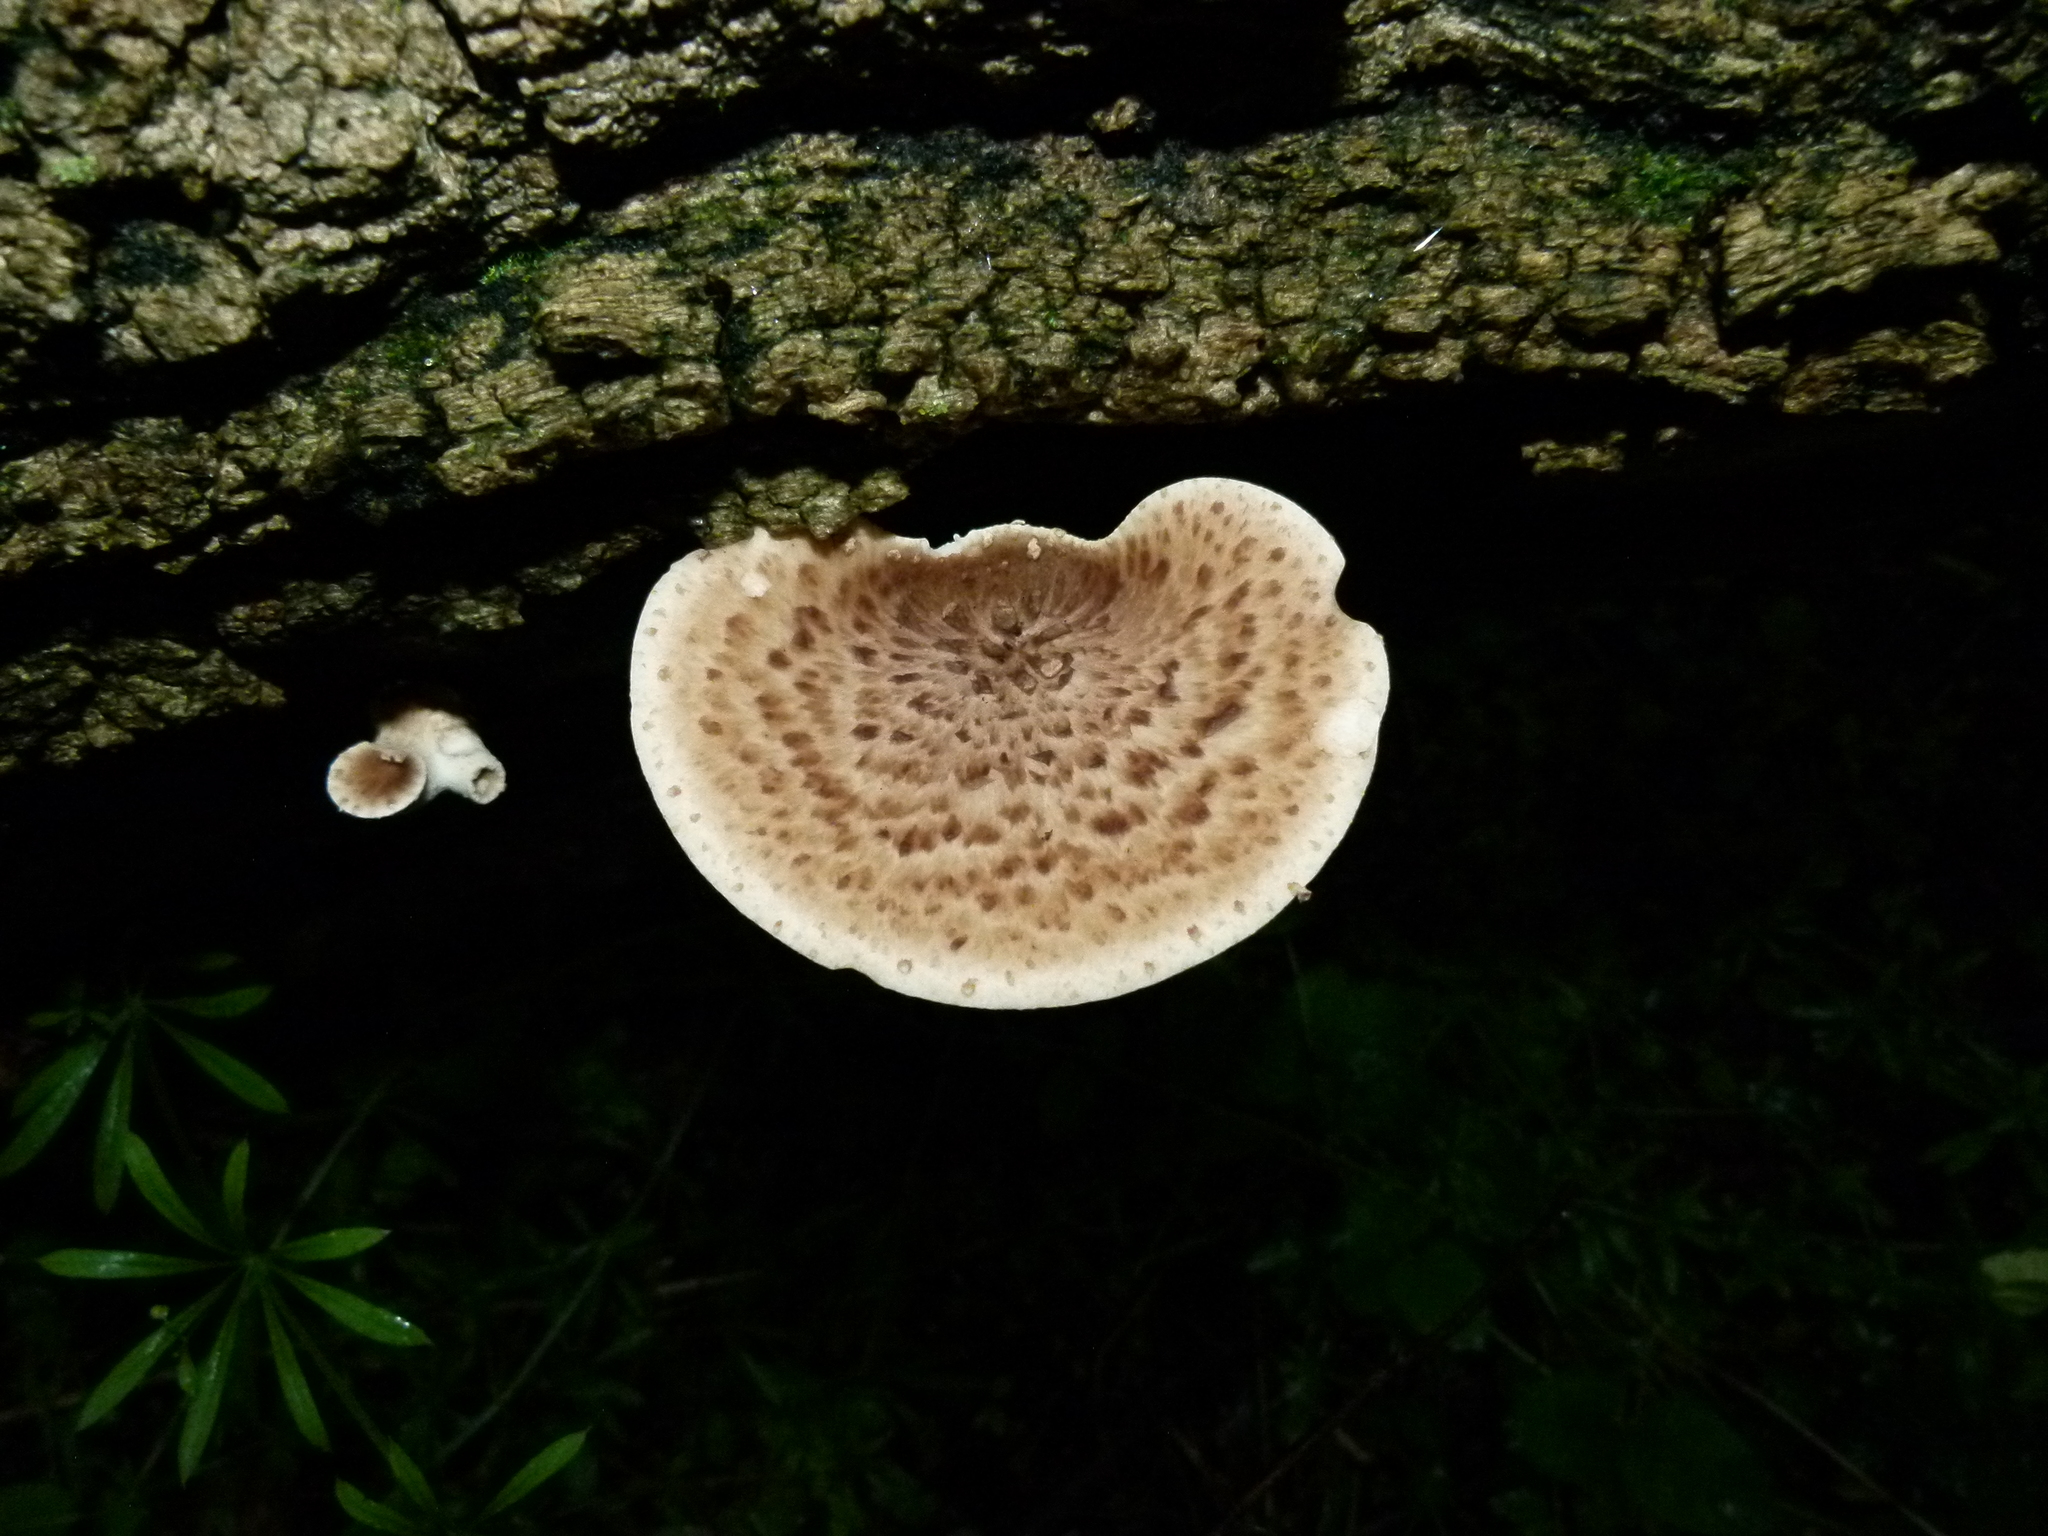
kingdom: Fungi
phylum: Basidiomycota
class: Agaricomycetes
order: Polyporales
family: Polyporaceae
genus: Cerioporus
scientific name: Cerioporus squamosus
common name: Dryad's saddle
